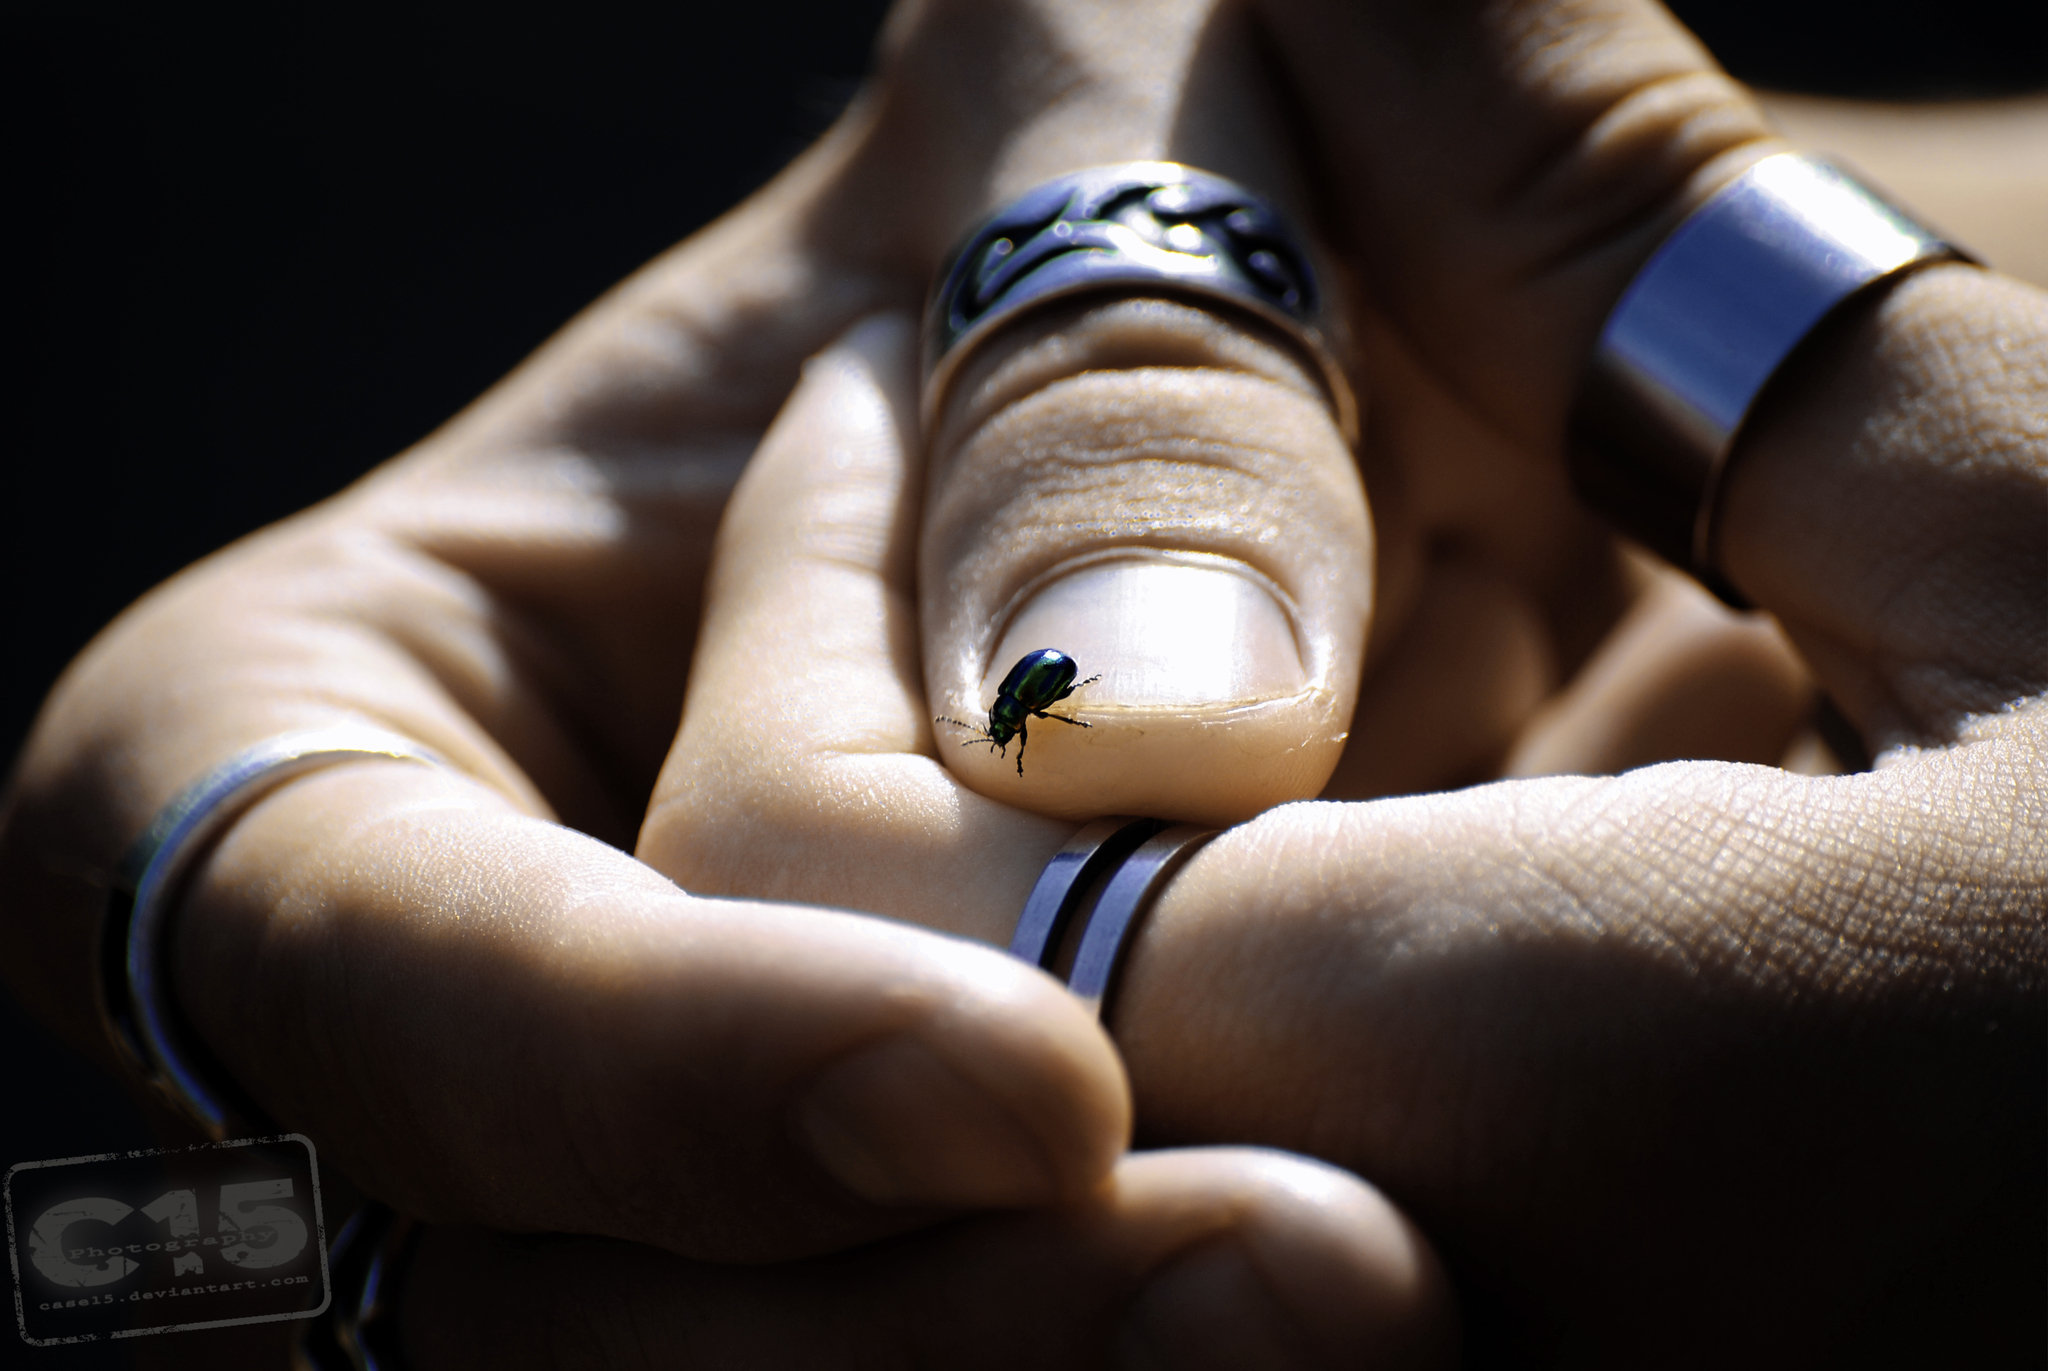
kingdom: Animalia
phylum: Arthropoda
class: Insecta
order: Coleoptera
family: Chrysomelidae
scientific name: Chrysomelidae
